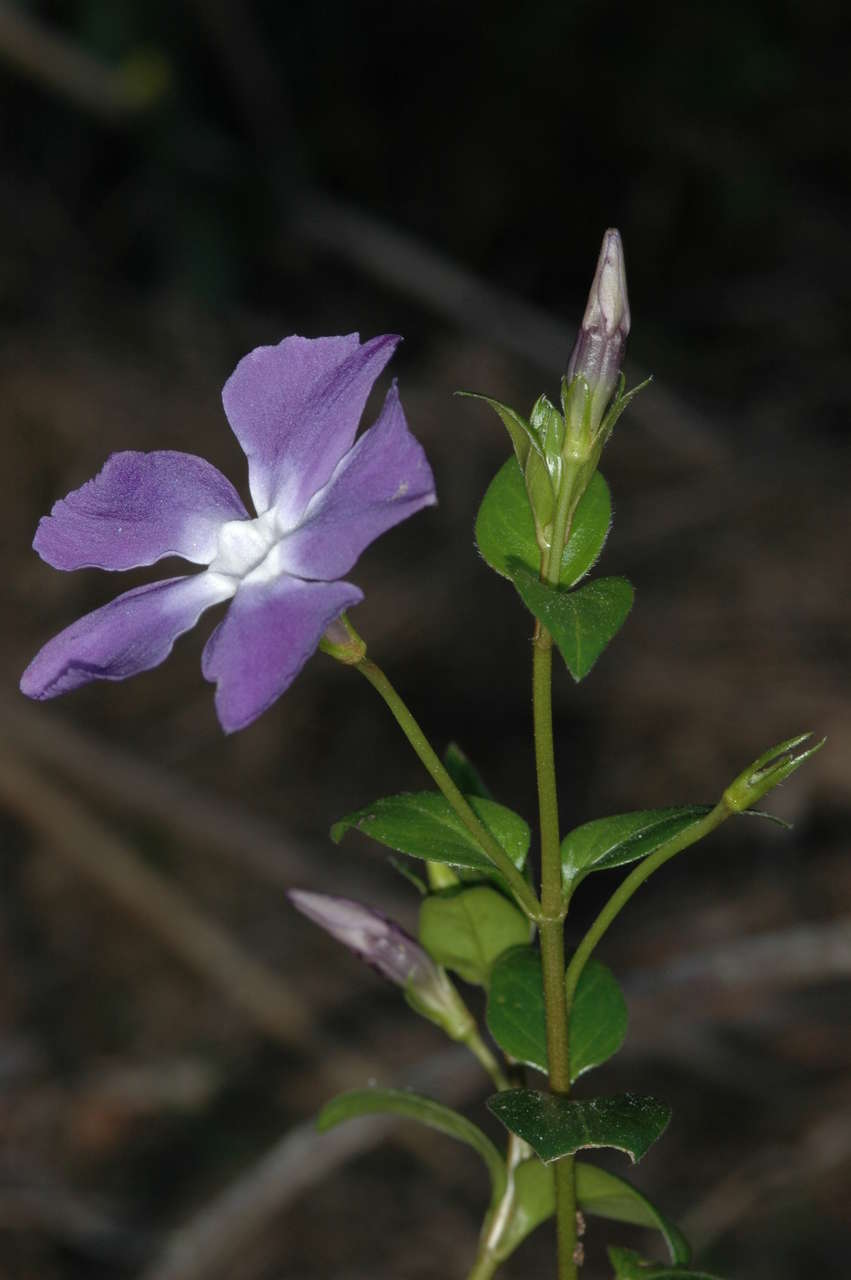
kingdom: Plantae
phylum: Tracheophyta
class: Magnoliopsida
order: Gentianales
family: Apocynaceae
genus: Vinca
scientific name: Vinca major
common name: Greater periwinkle
